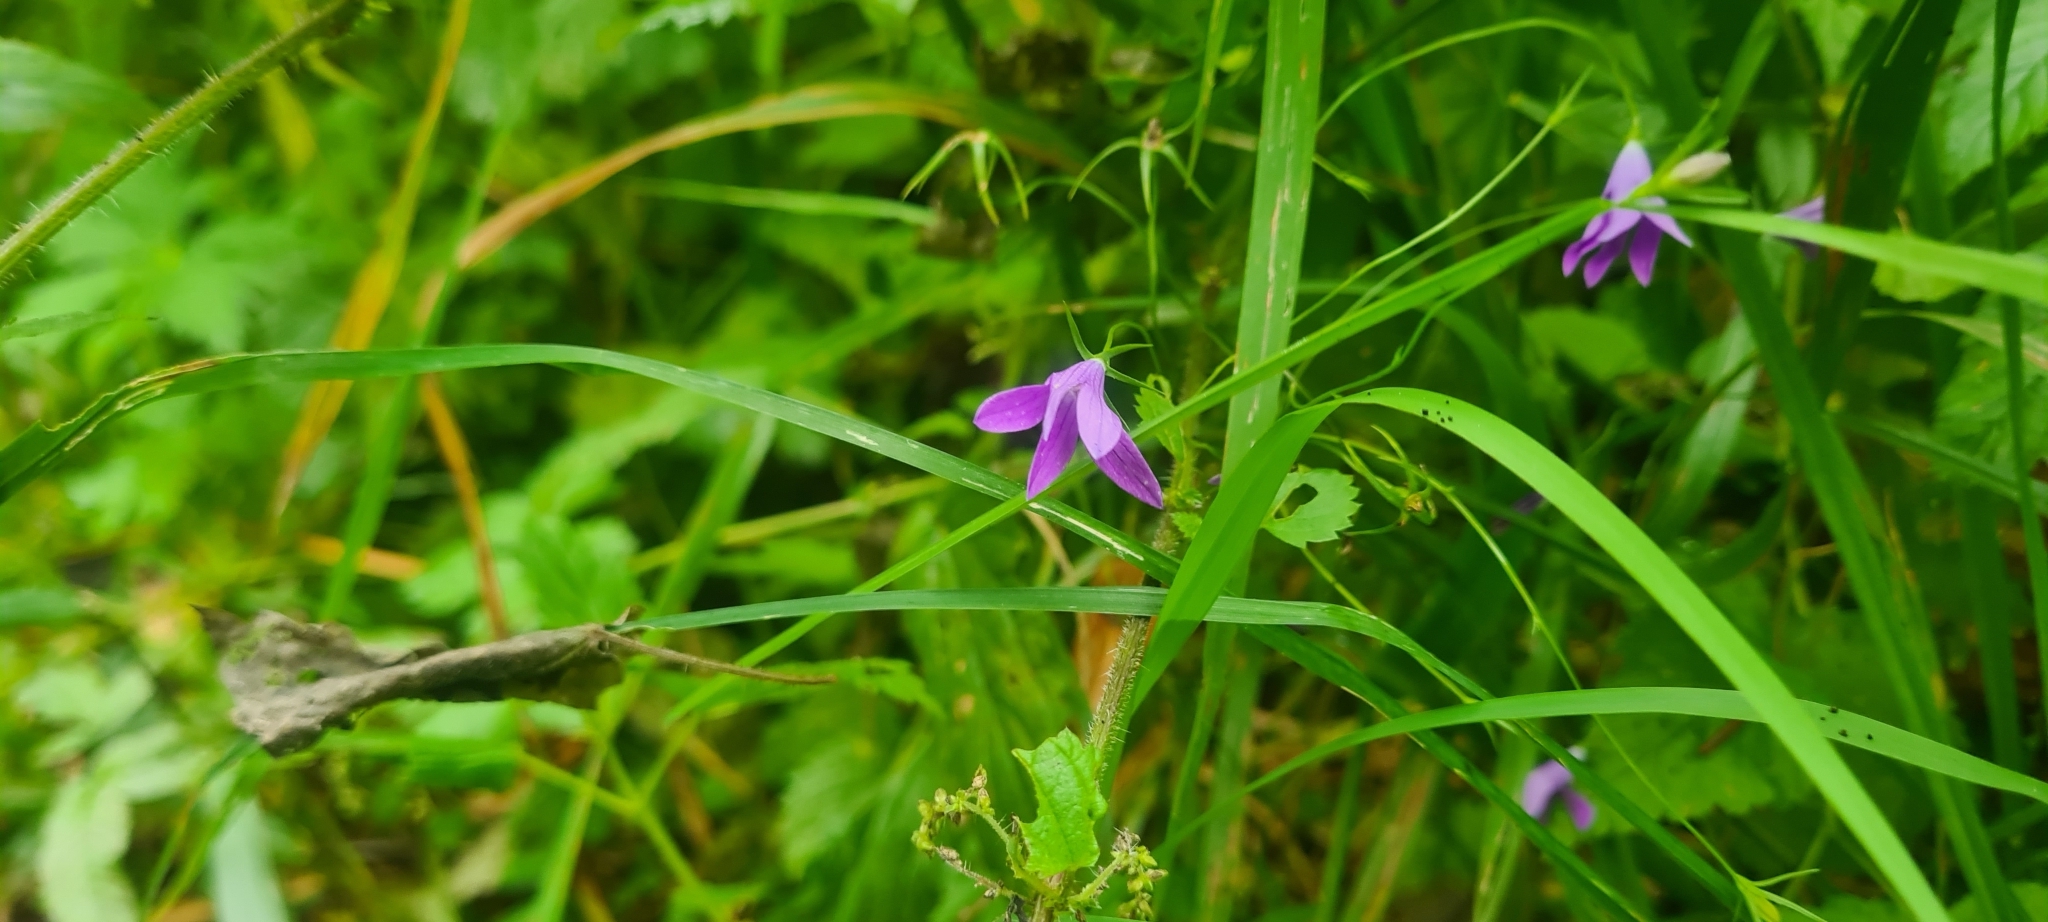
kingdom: Plantae
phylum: Tracheophyta
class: Magnoliopsida
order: Asterales
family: Campanulaceae
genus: Campanula
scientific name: Campanula patula
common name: Spreading bellflower
